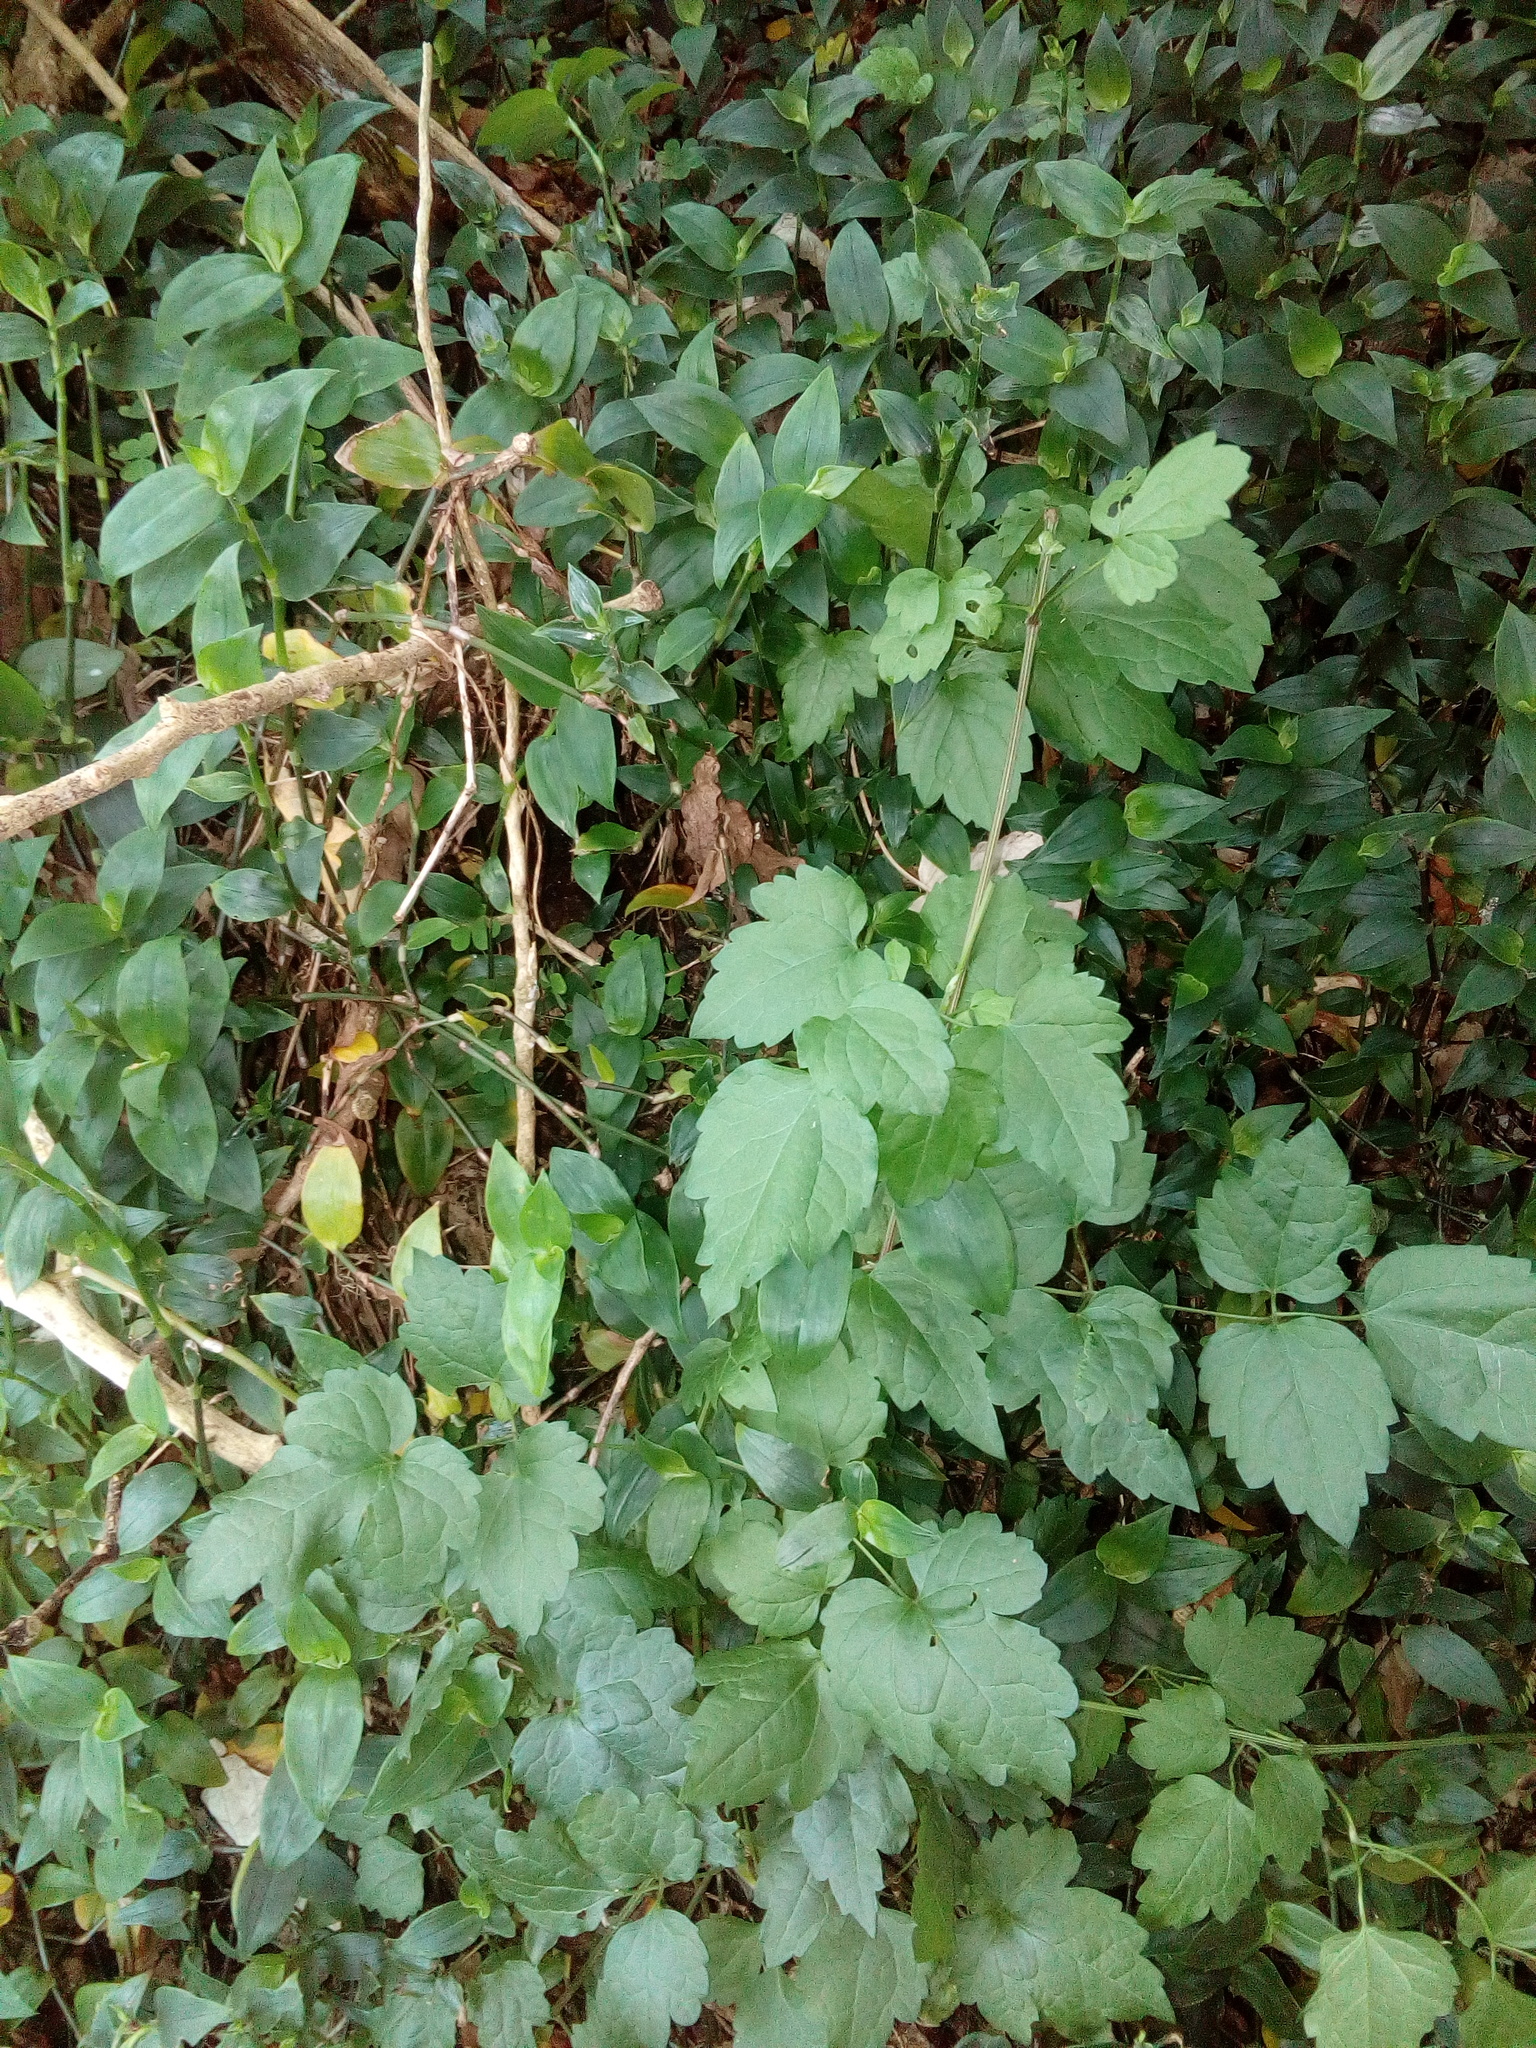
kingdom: Plantae
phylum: Tracheophyta
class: Magnoliopsida
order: Ranunculales
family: Ranunculaceae
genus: Clematis
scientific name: Clematis vitalba
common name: Evergreen clematis
